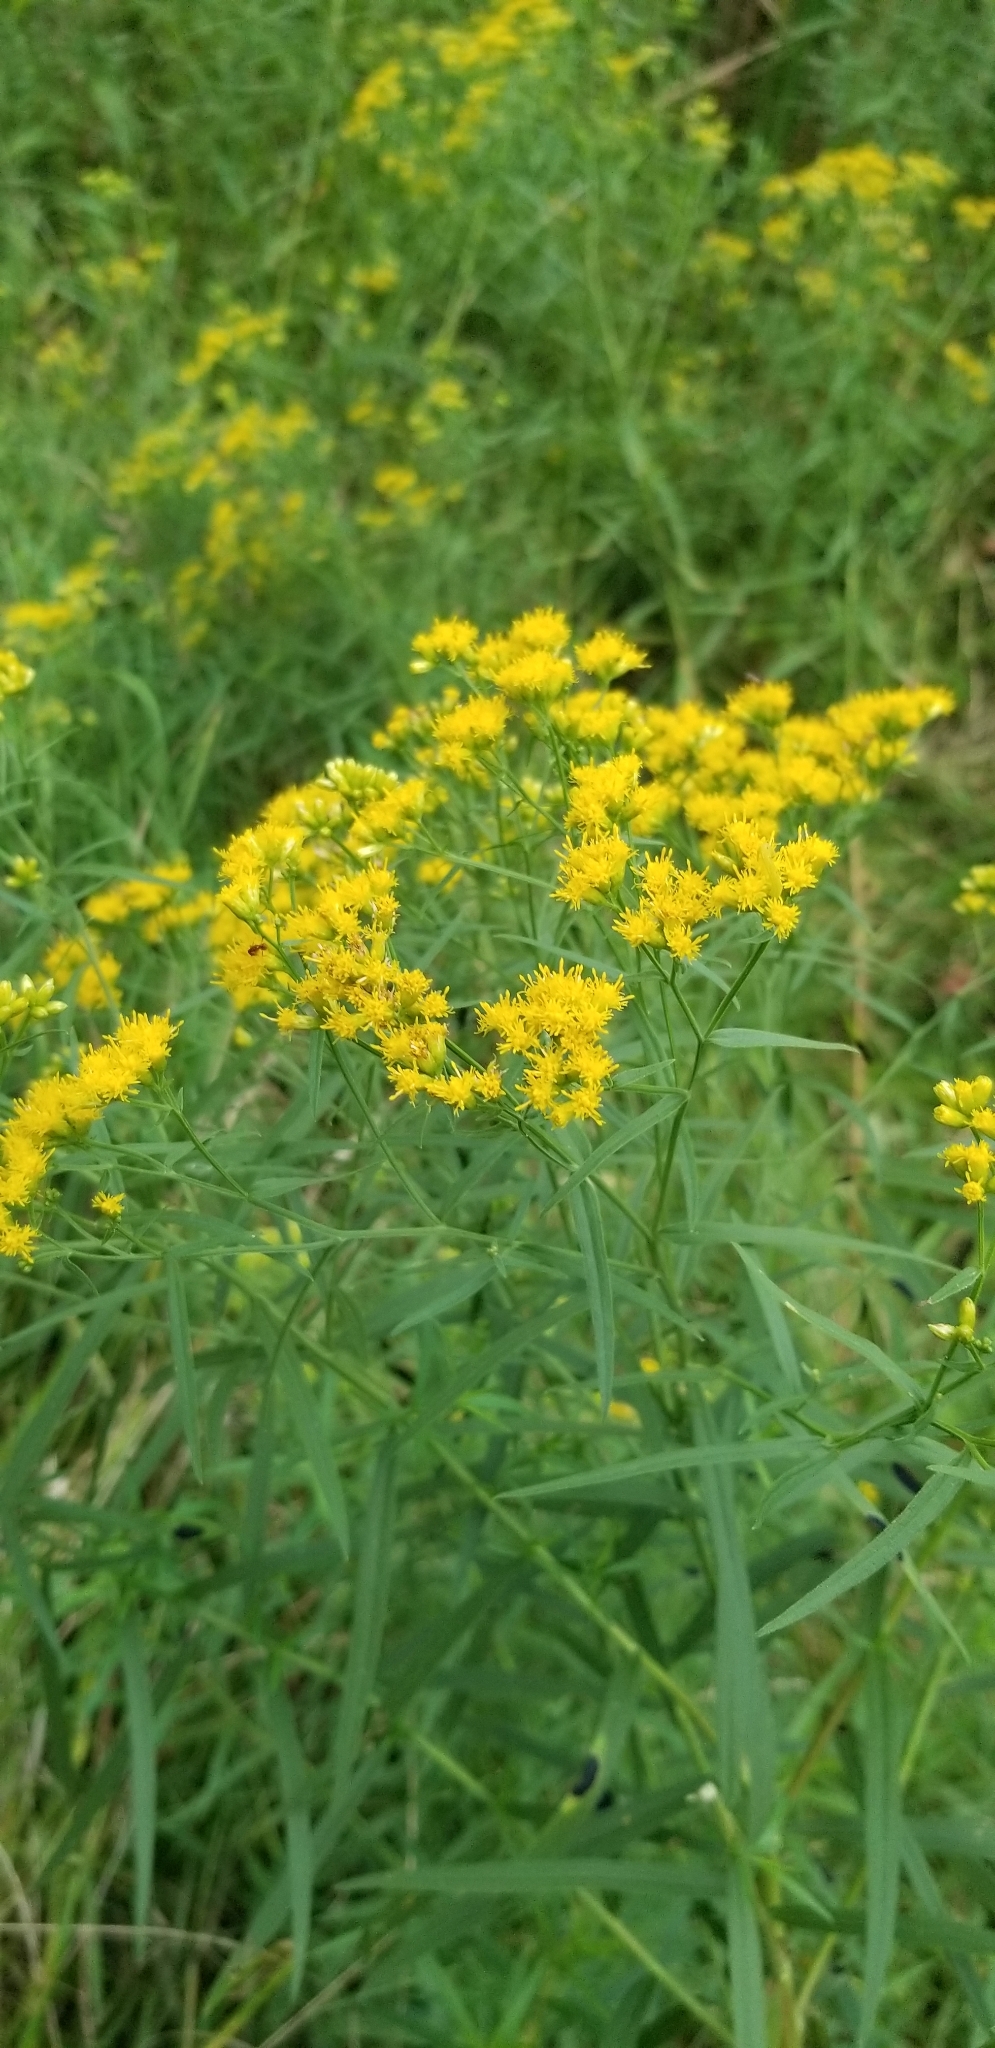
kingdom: Plantae
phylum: Tracheophyta
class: Magnoliopsida
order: Asterales
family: Asteraceae
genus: Euthamia
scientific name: Euthamia graminifolia
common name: Common goldentop
